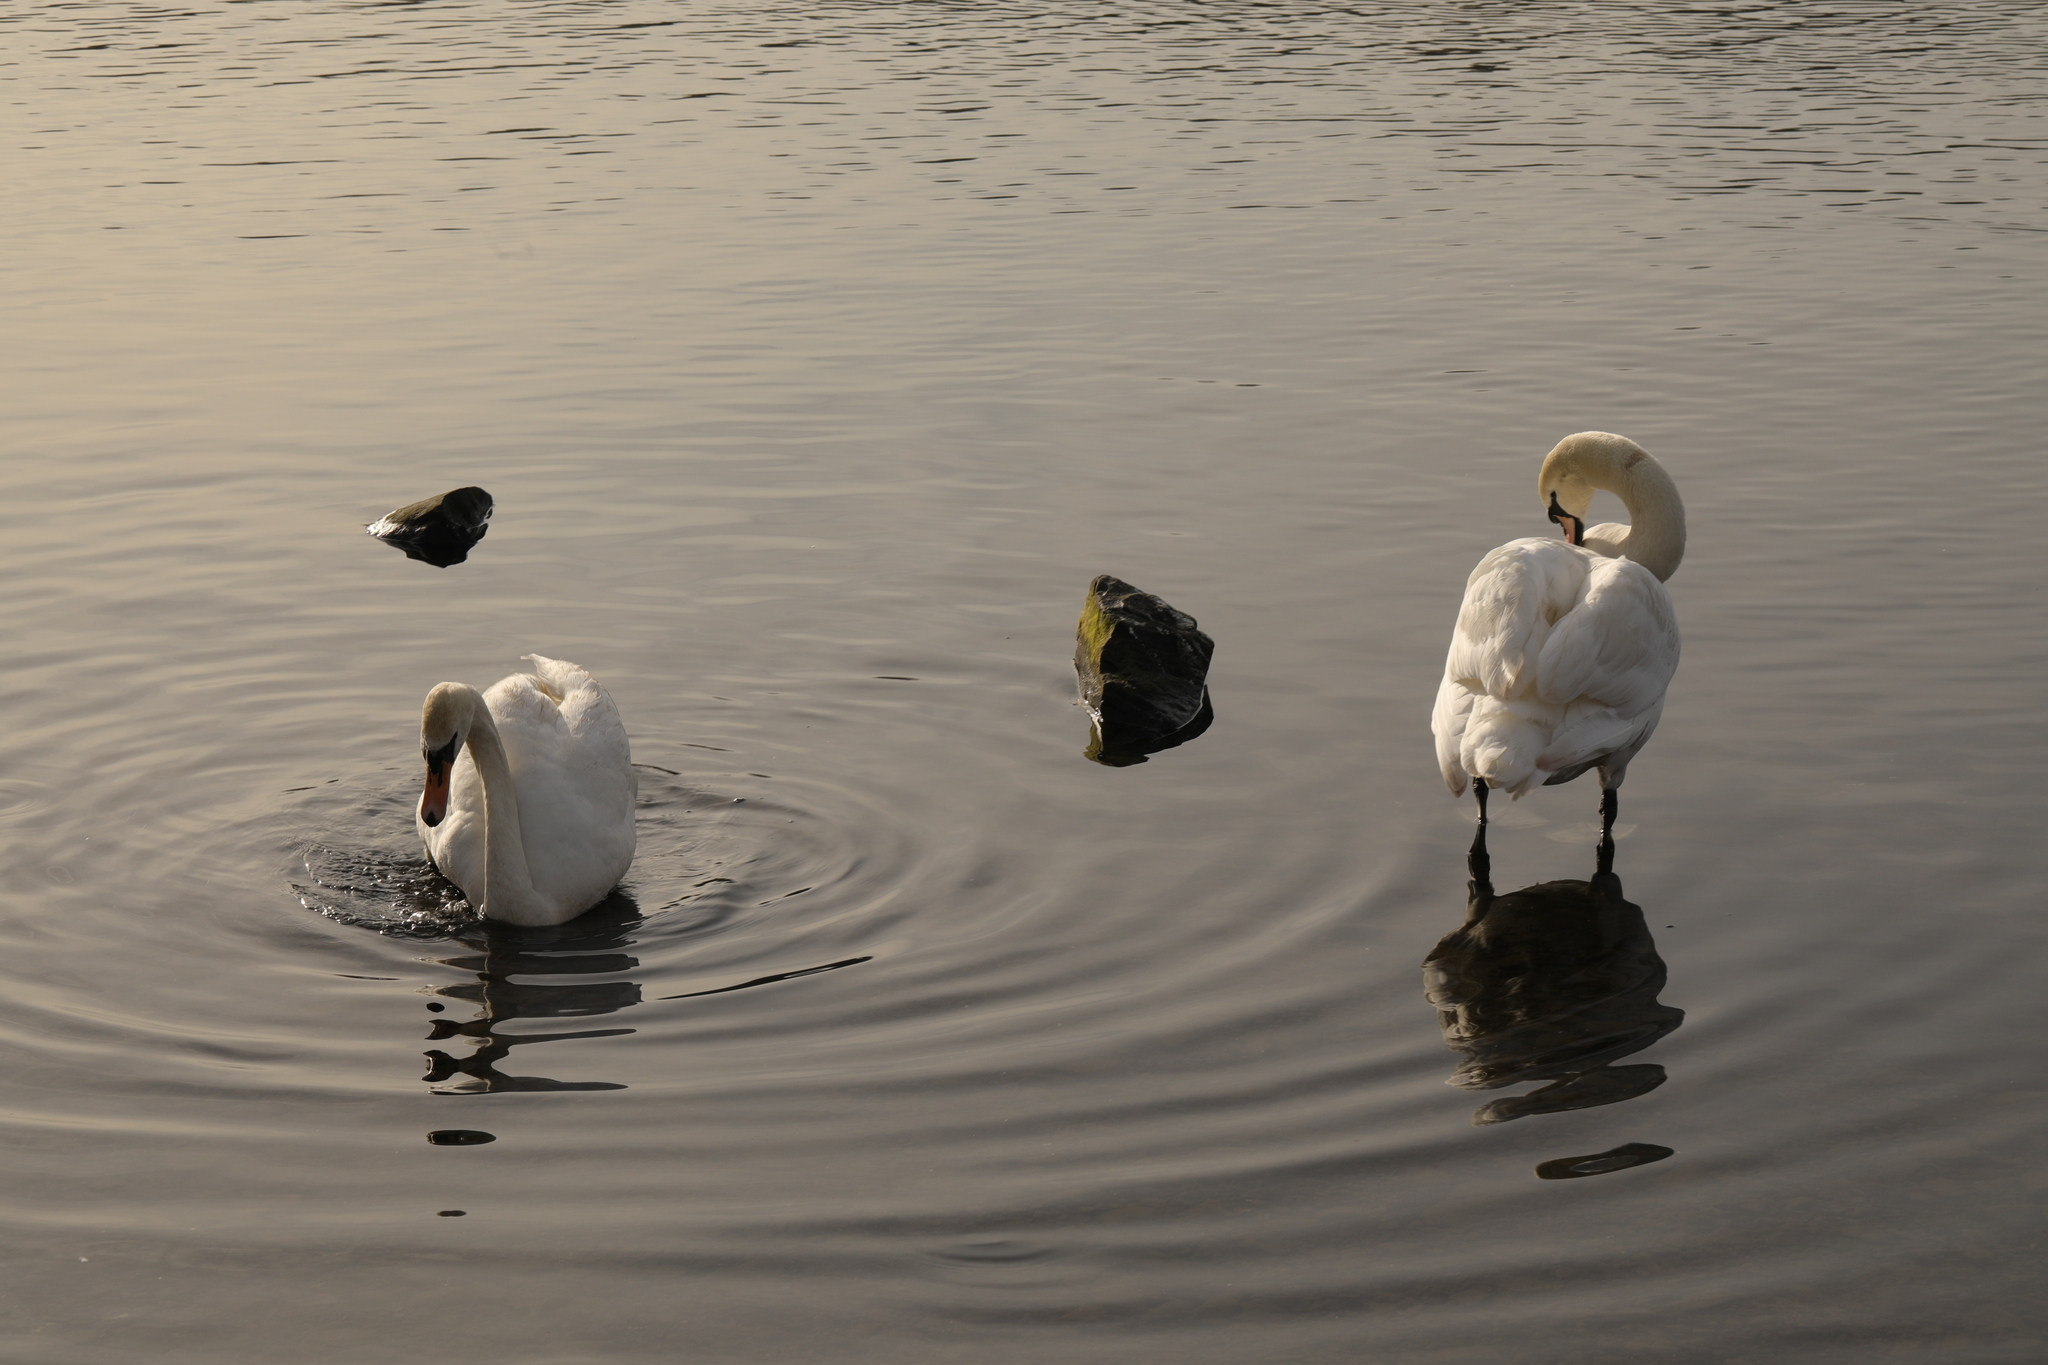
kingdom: Animalia
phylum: Chordata
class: Aves
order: Anseriformes
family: Anatidae
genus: Cygnus
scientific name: Cygnus olor
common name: Mute swan
